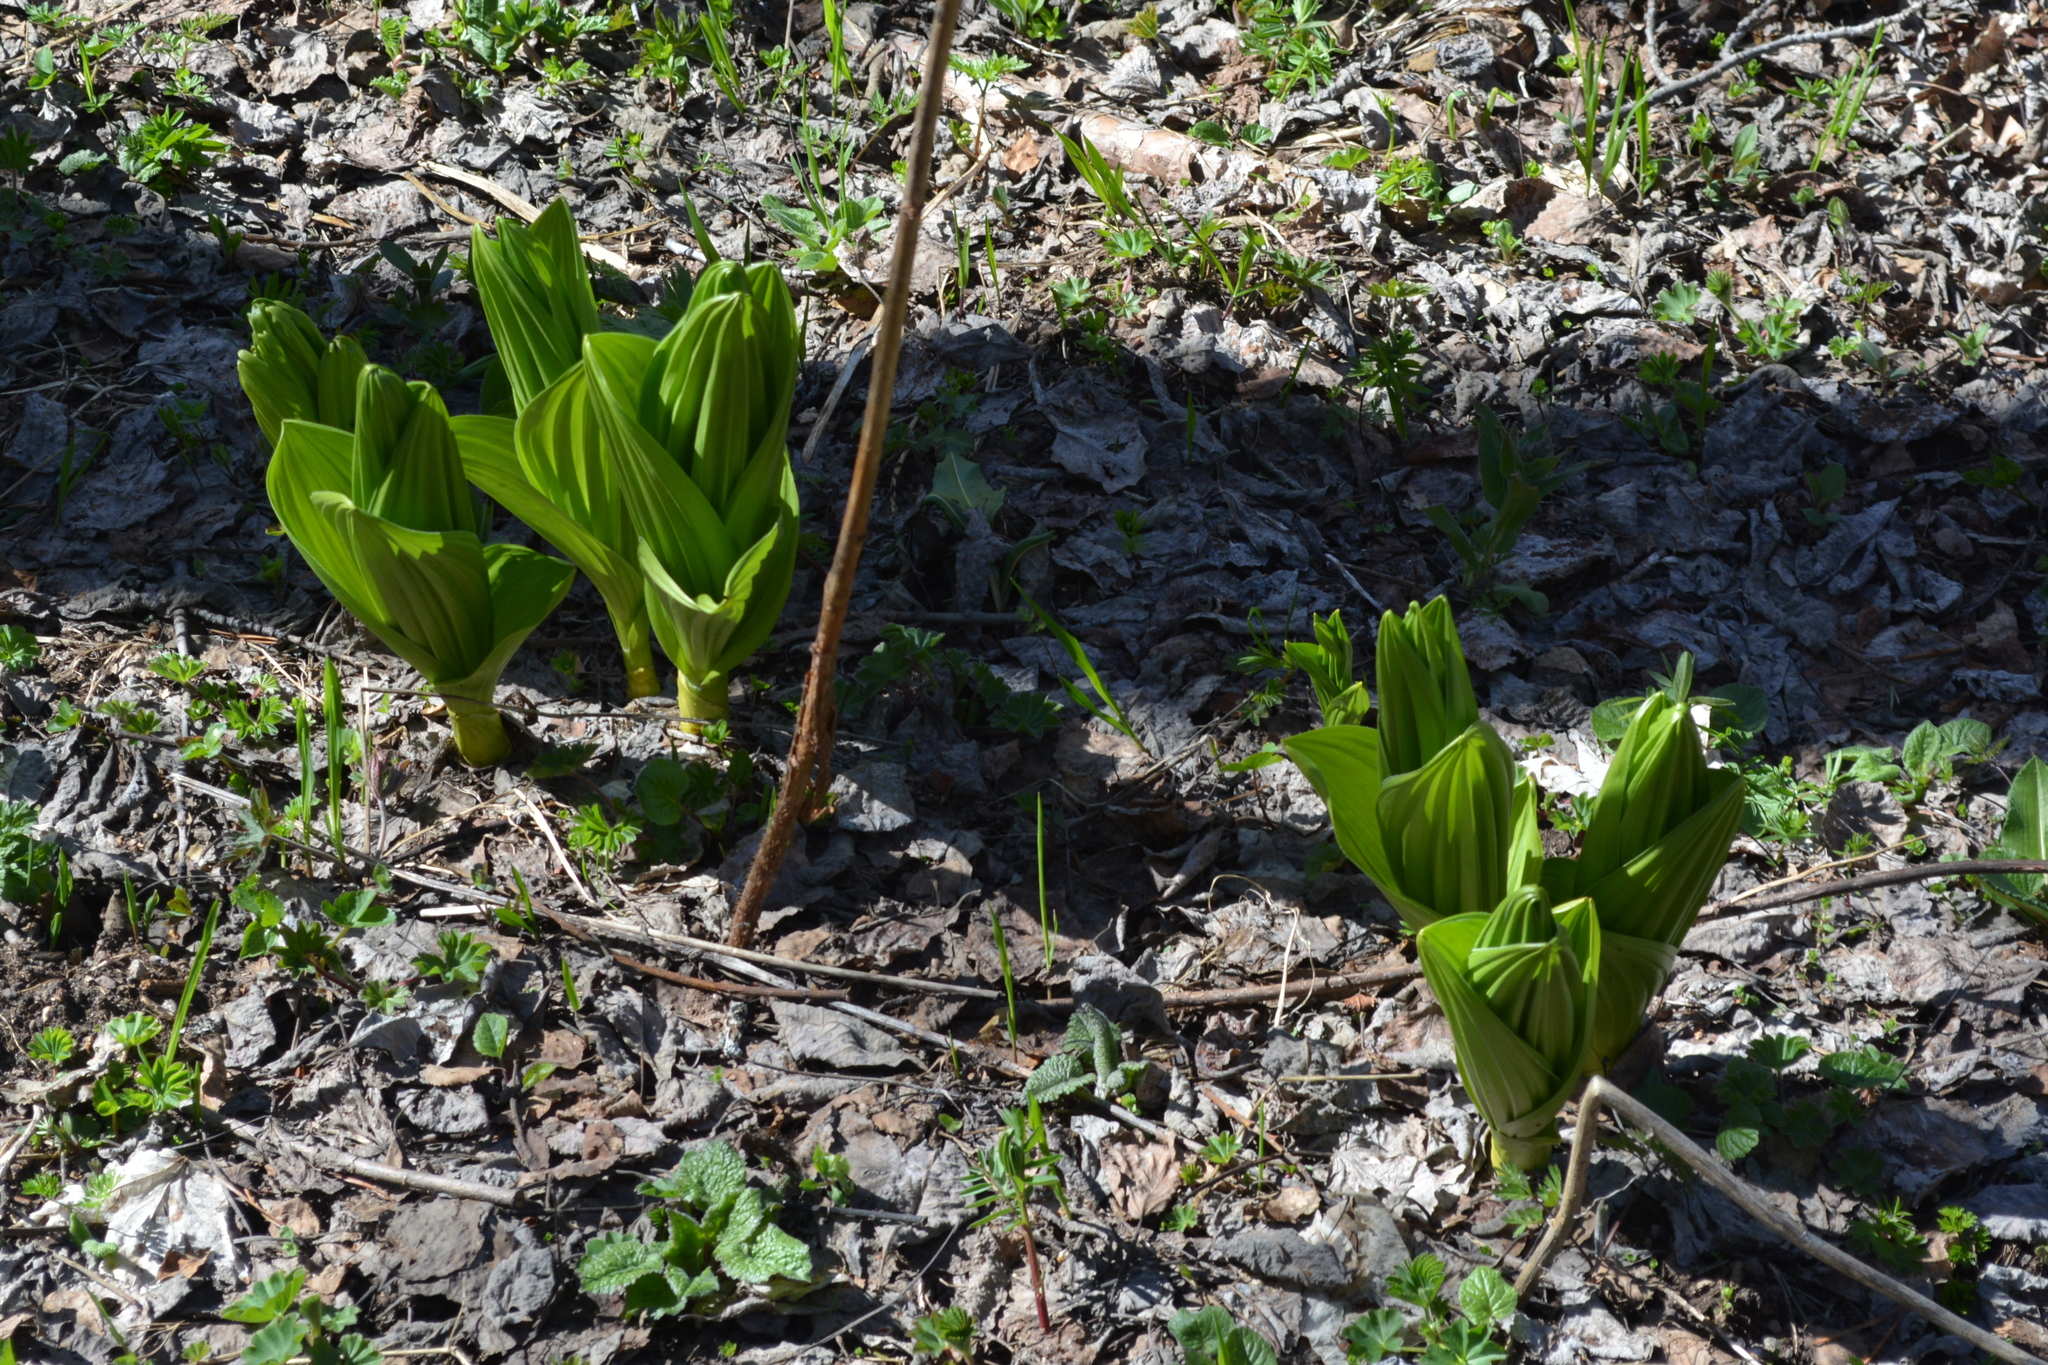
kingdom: Plantae
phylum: Tracheophyta
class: Liliopsida
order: Liliales
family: Melanthiaceae
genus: Veratrum
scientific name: Veratrum lobelianum
